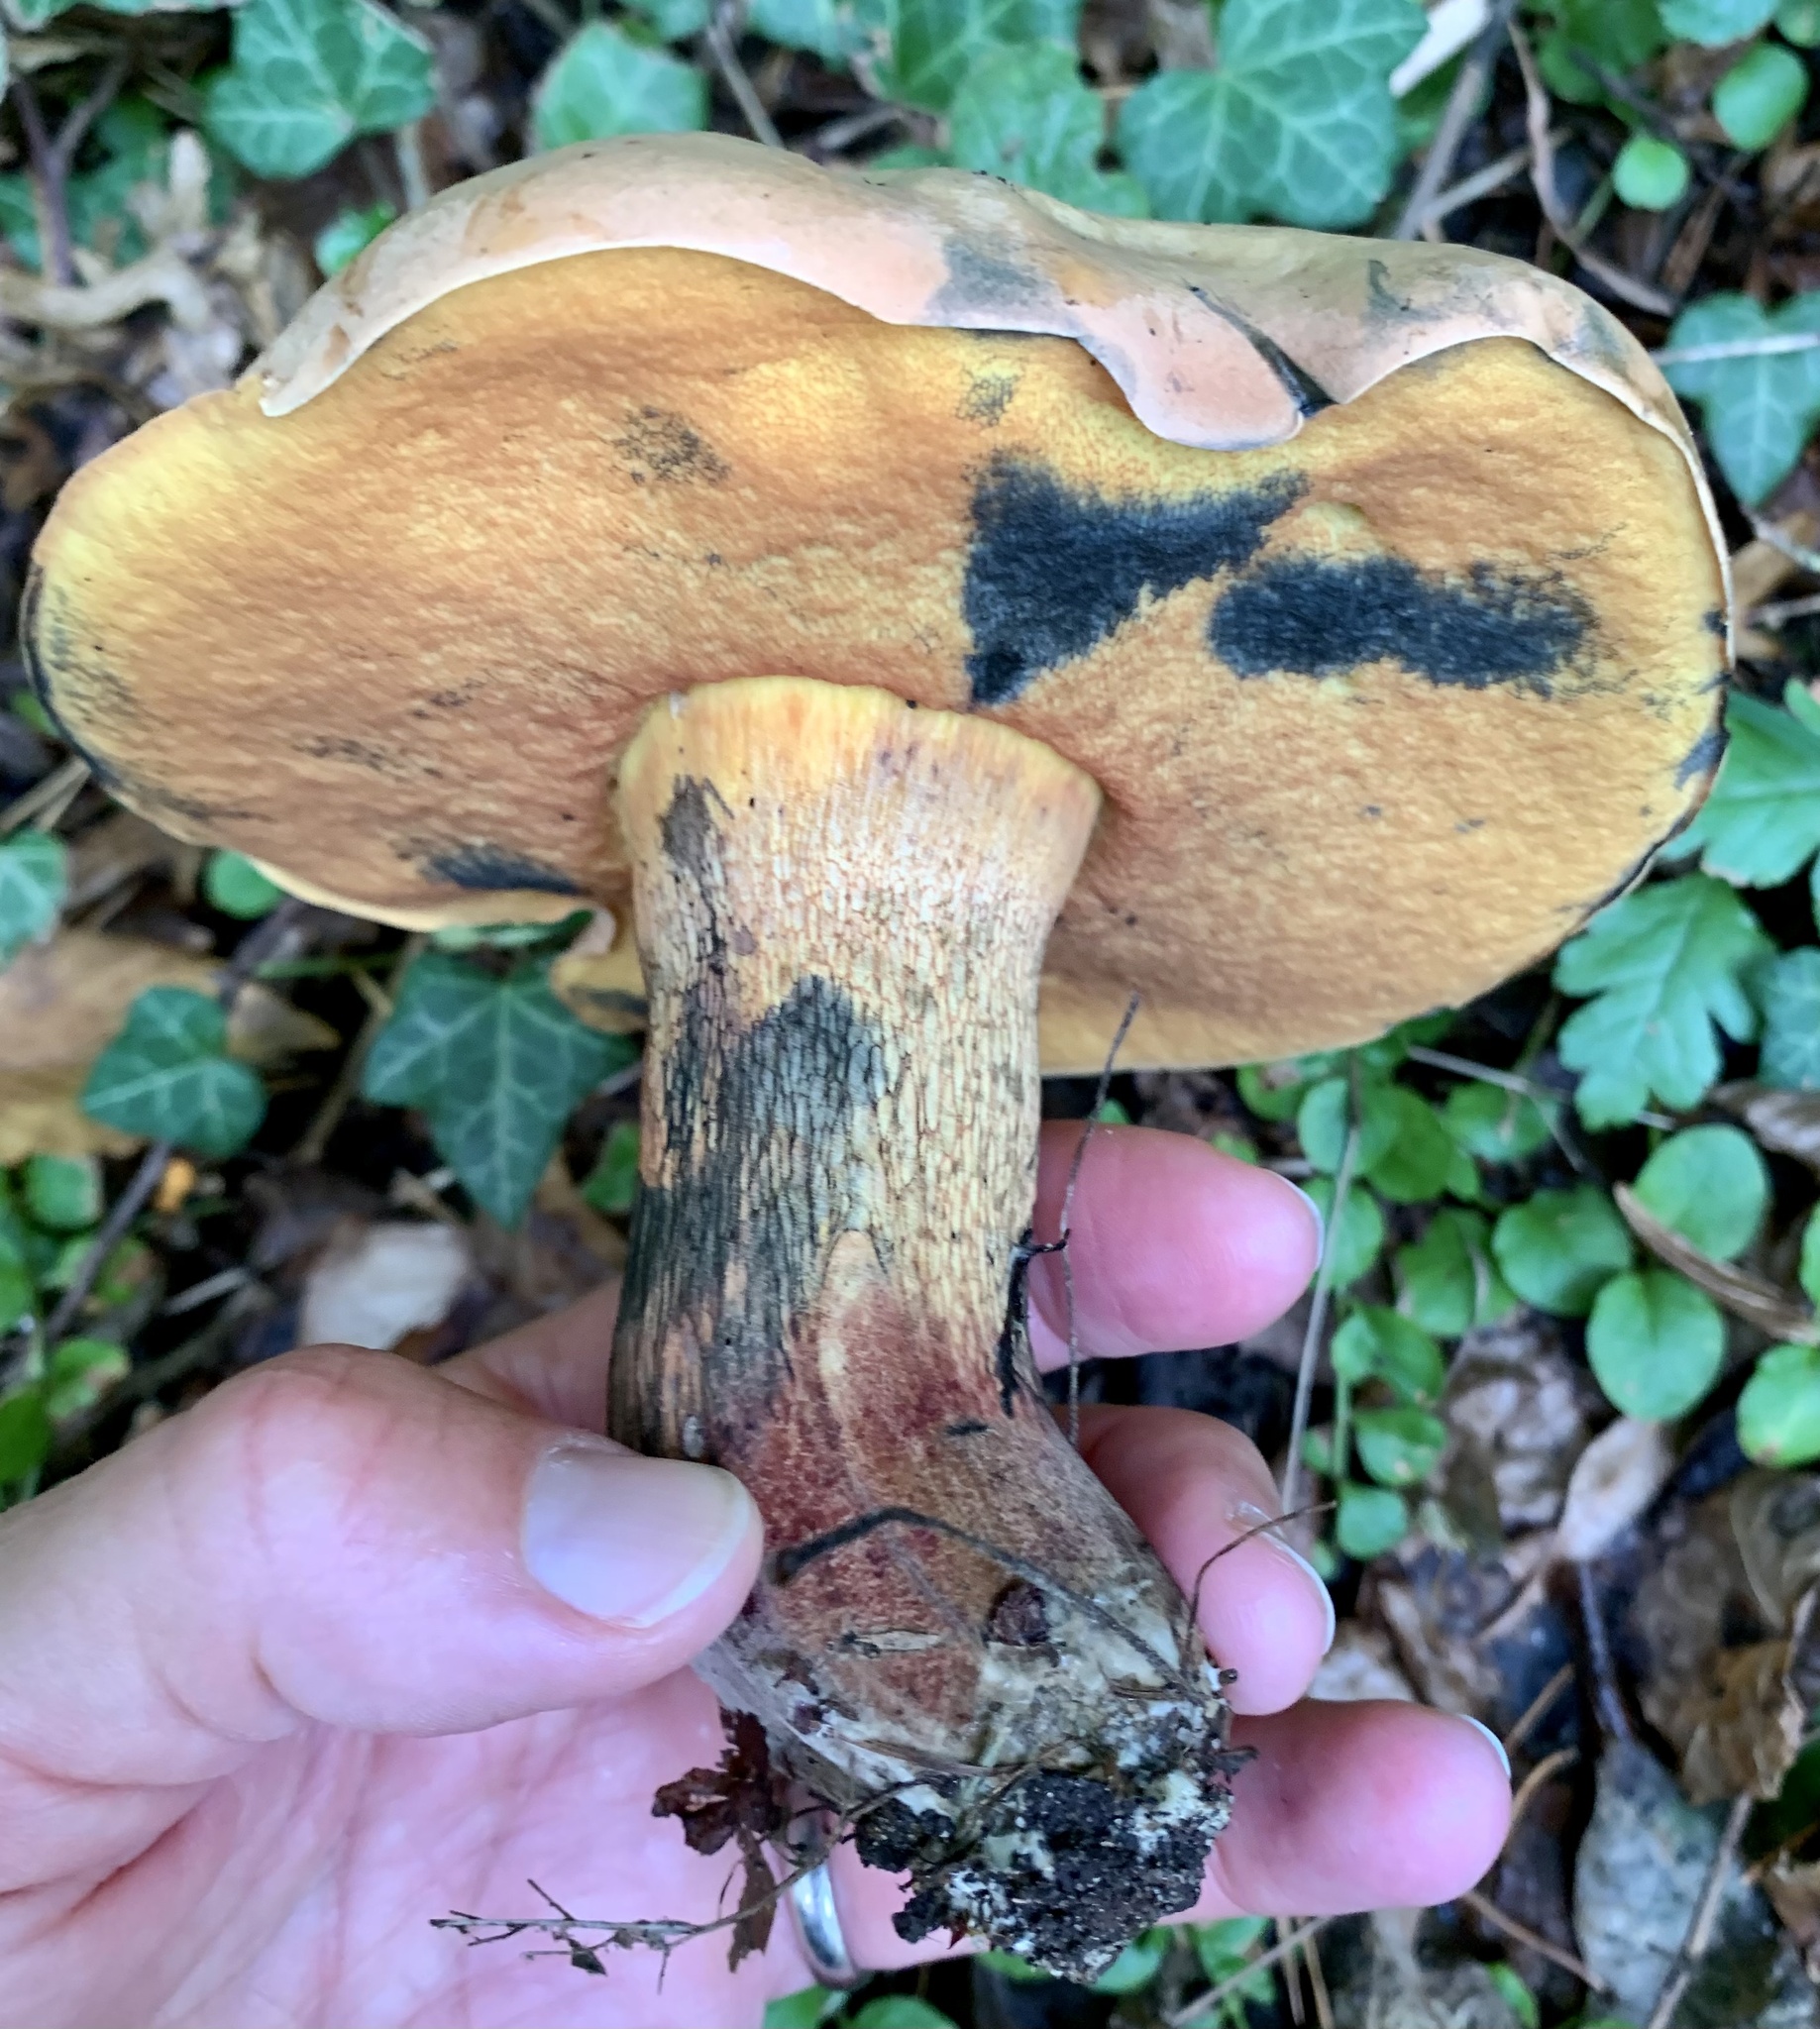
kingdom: Fungi
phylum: Basidiomycota
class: Agaricomycetes
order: Boletales
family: Boletaceae
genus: Suillellus
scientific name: Suillellus luridus
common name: Lurid bolete
